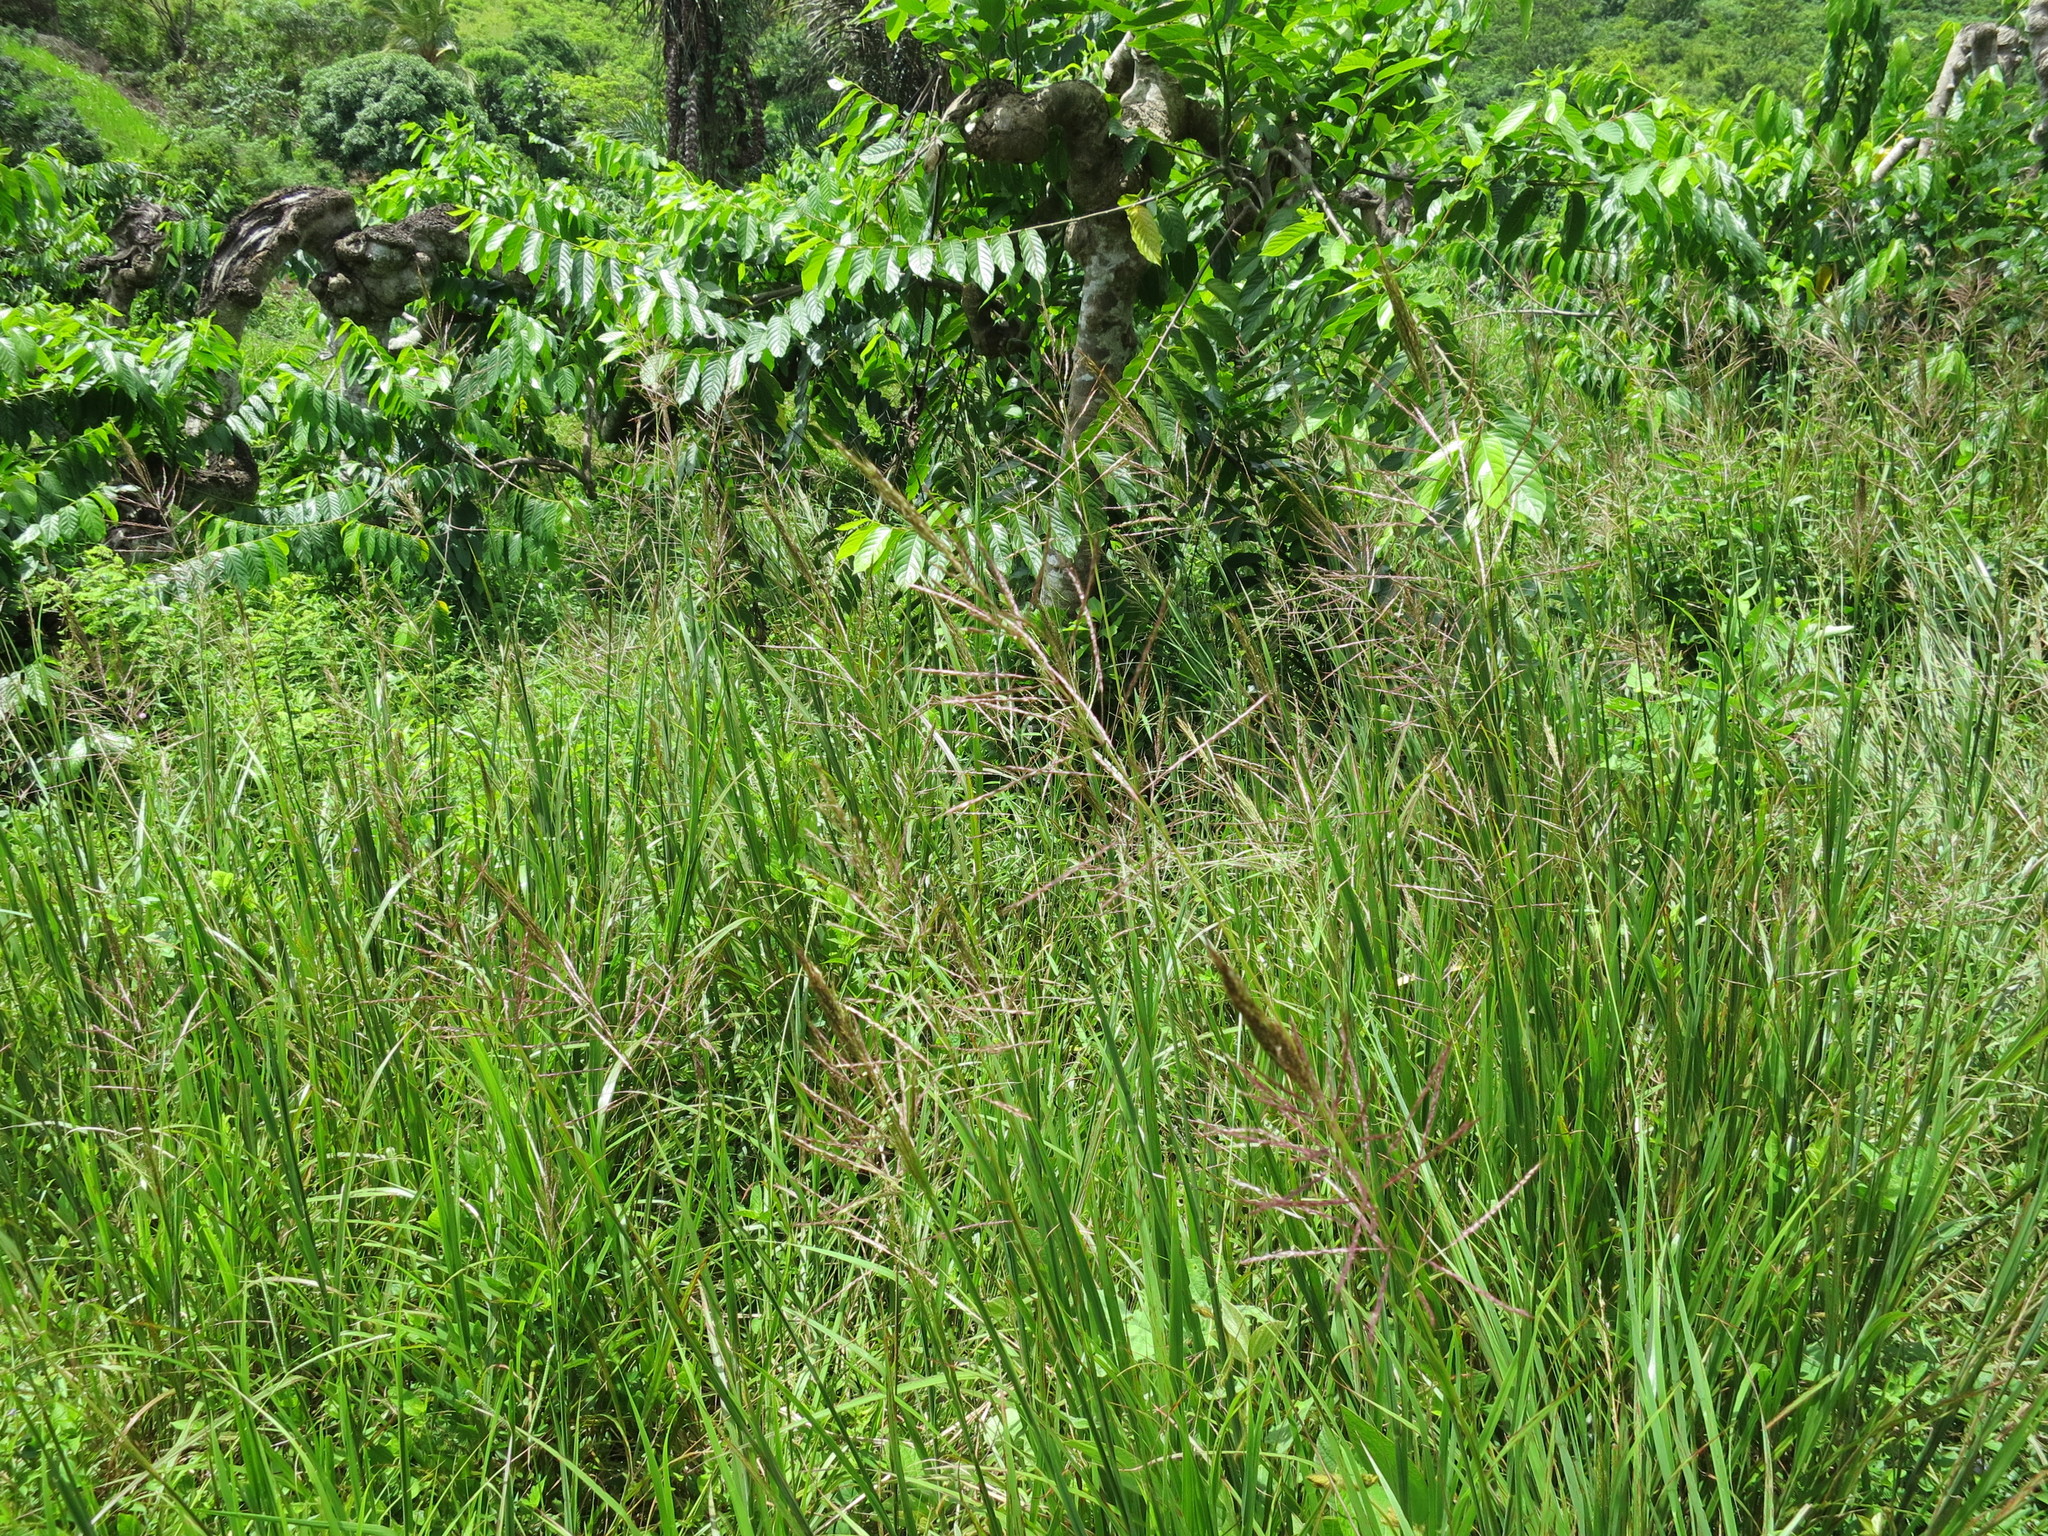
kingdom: Plantae
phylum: Tracheophyta
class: Liliopsida
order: Poales
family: Poaceae
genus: Bothriochloa
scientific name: Bothriochloa bladhii
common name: Caucasian bluestem
